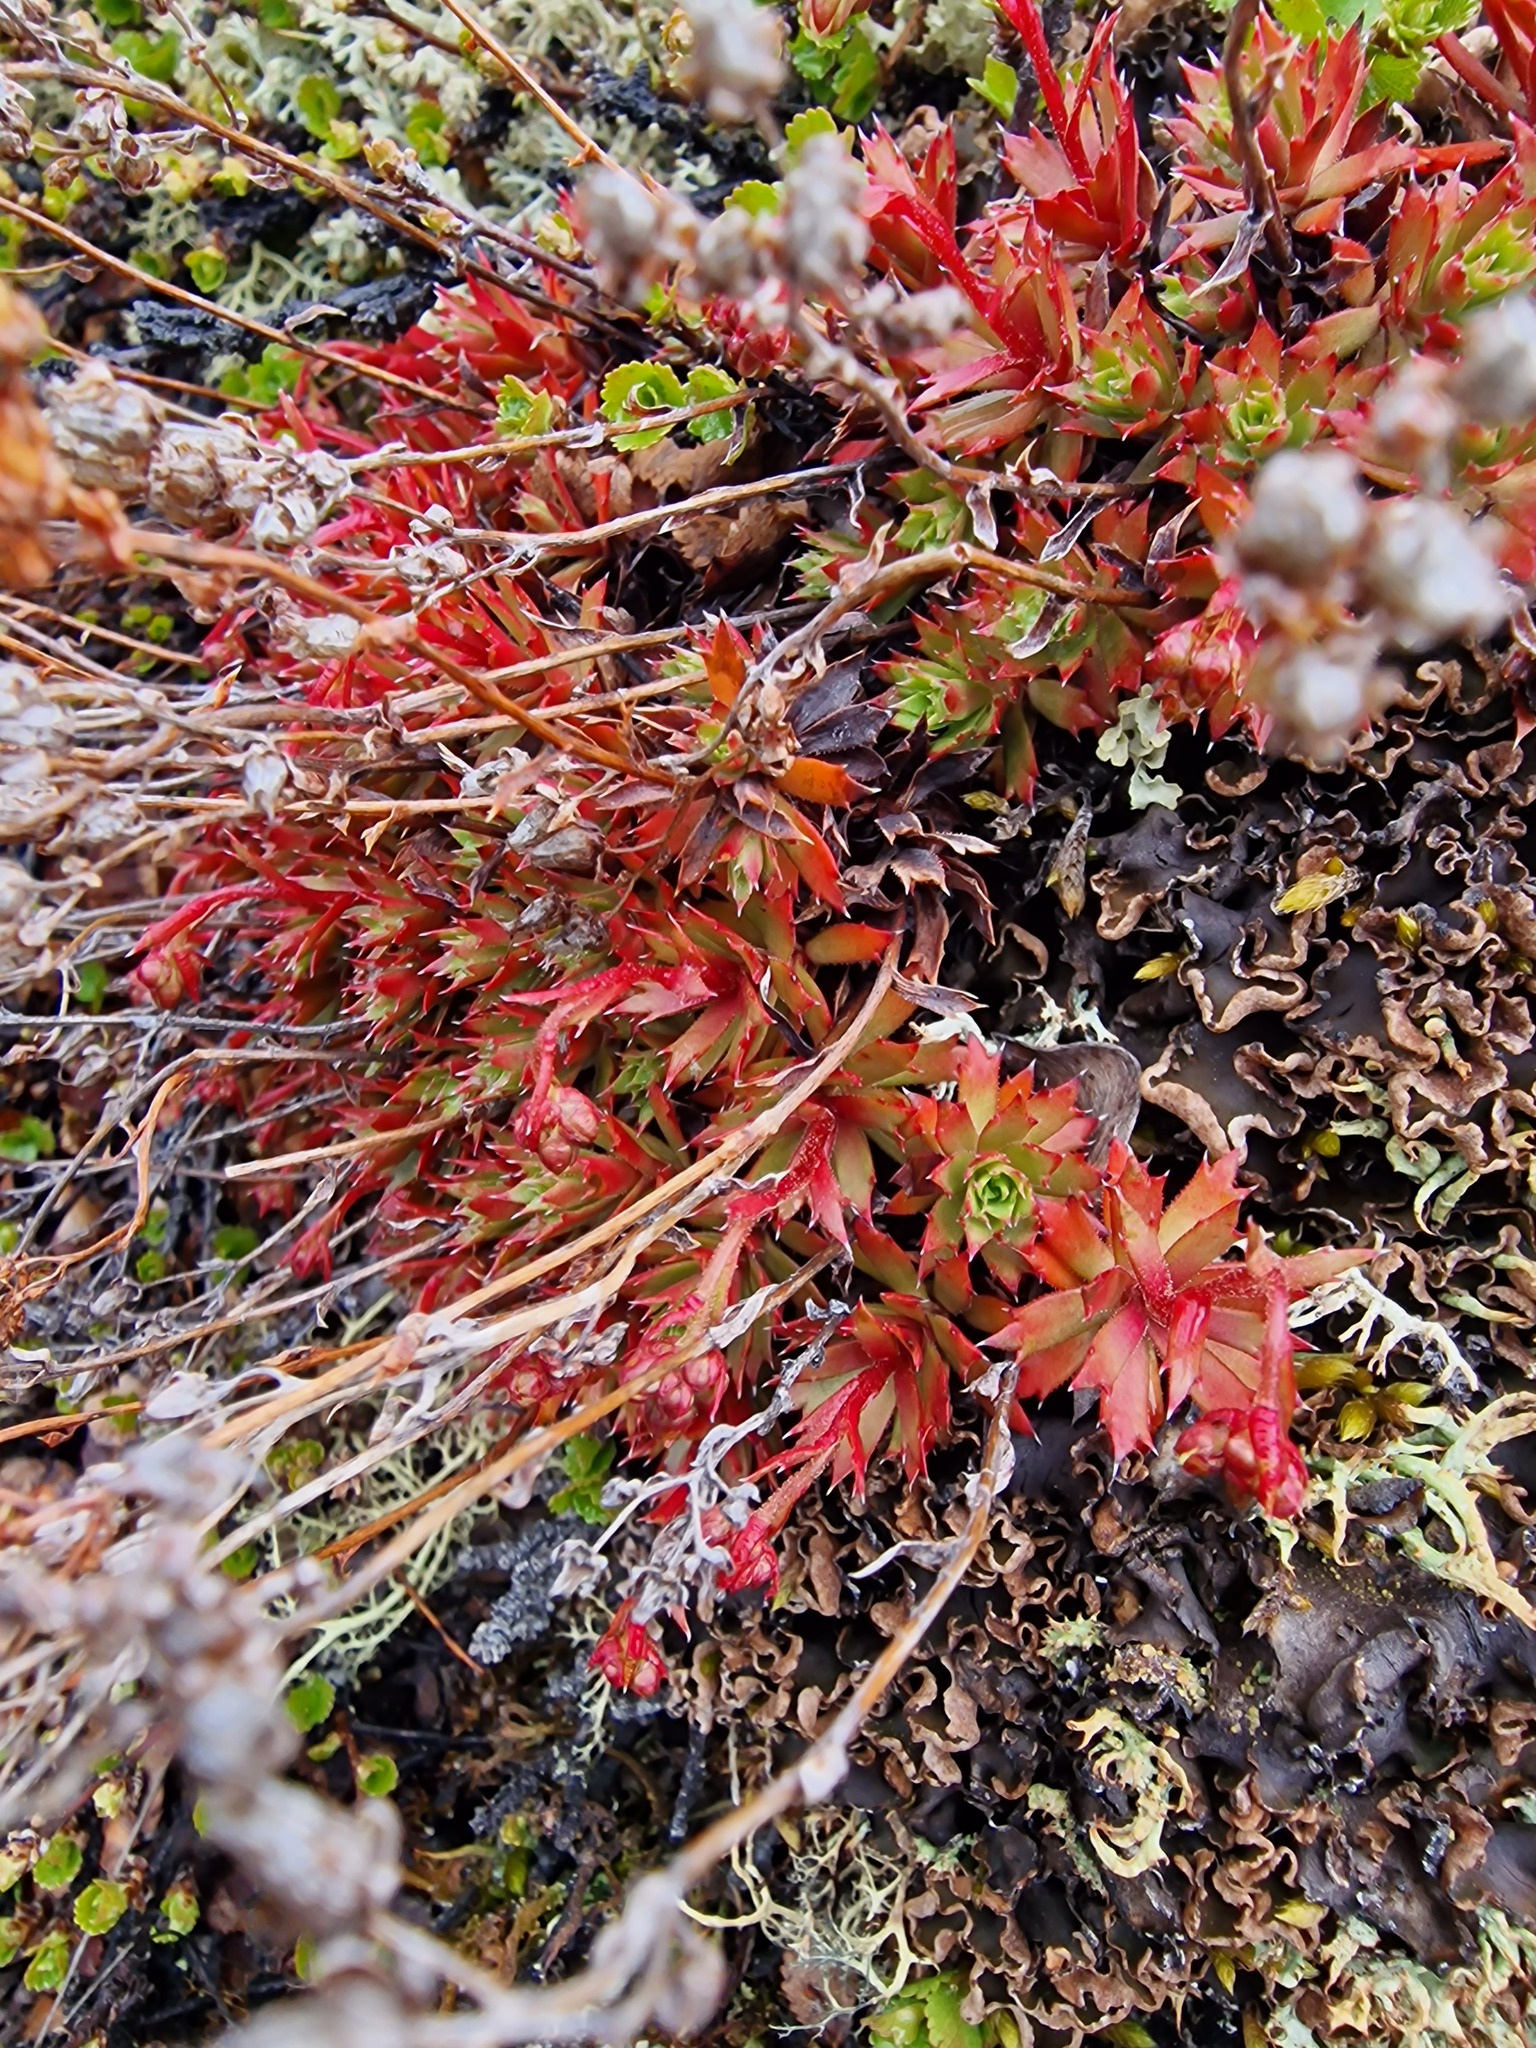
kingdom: Plantae
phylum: Tracheophyta
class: Magnoliopsida
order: Saxifragales
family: Saxifragaceae
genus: Saxifraga
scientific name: Saxifraga tricuspidata
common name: Prickly saxifrage
